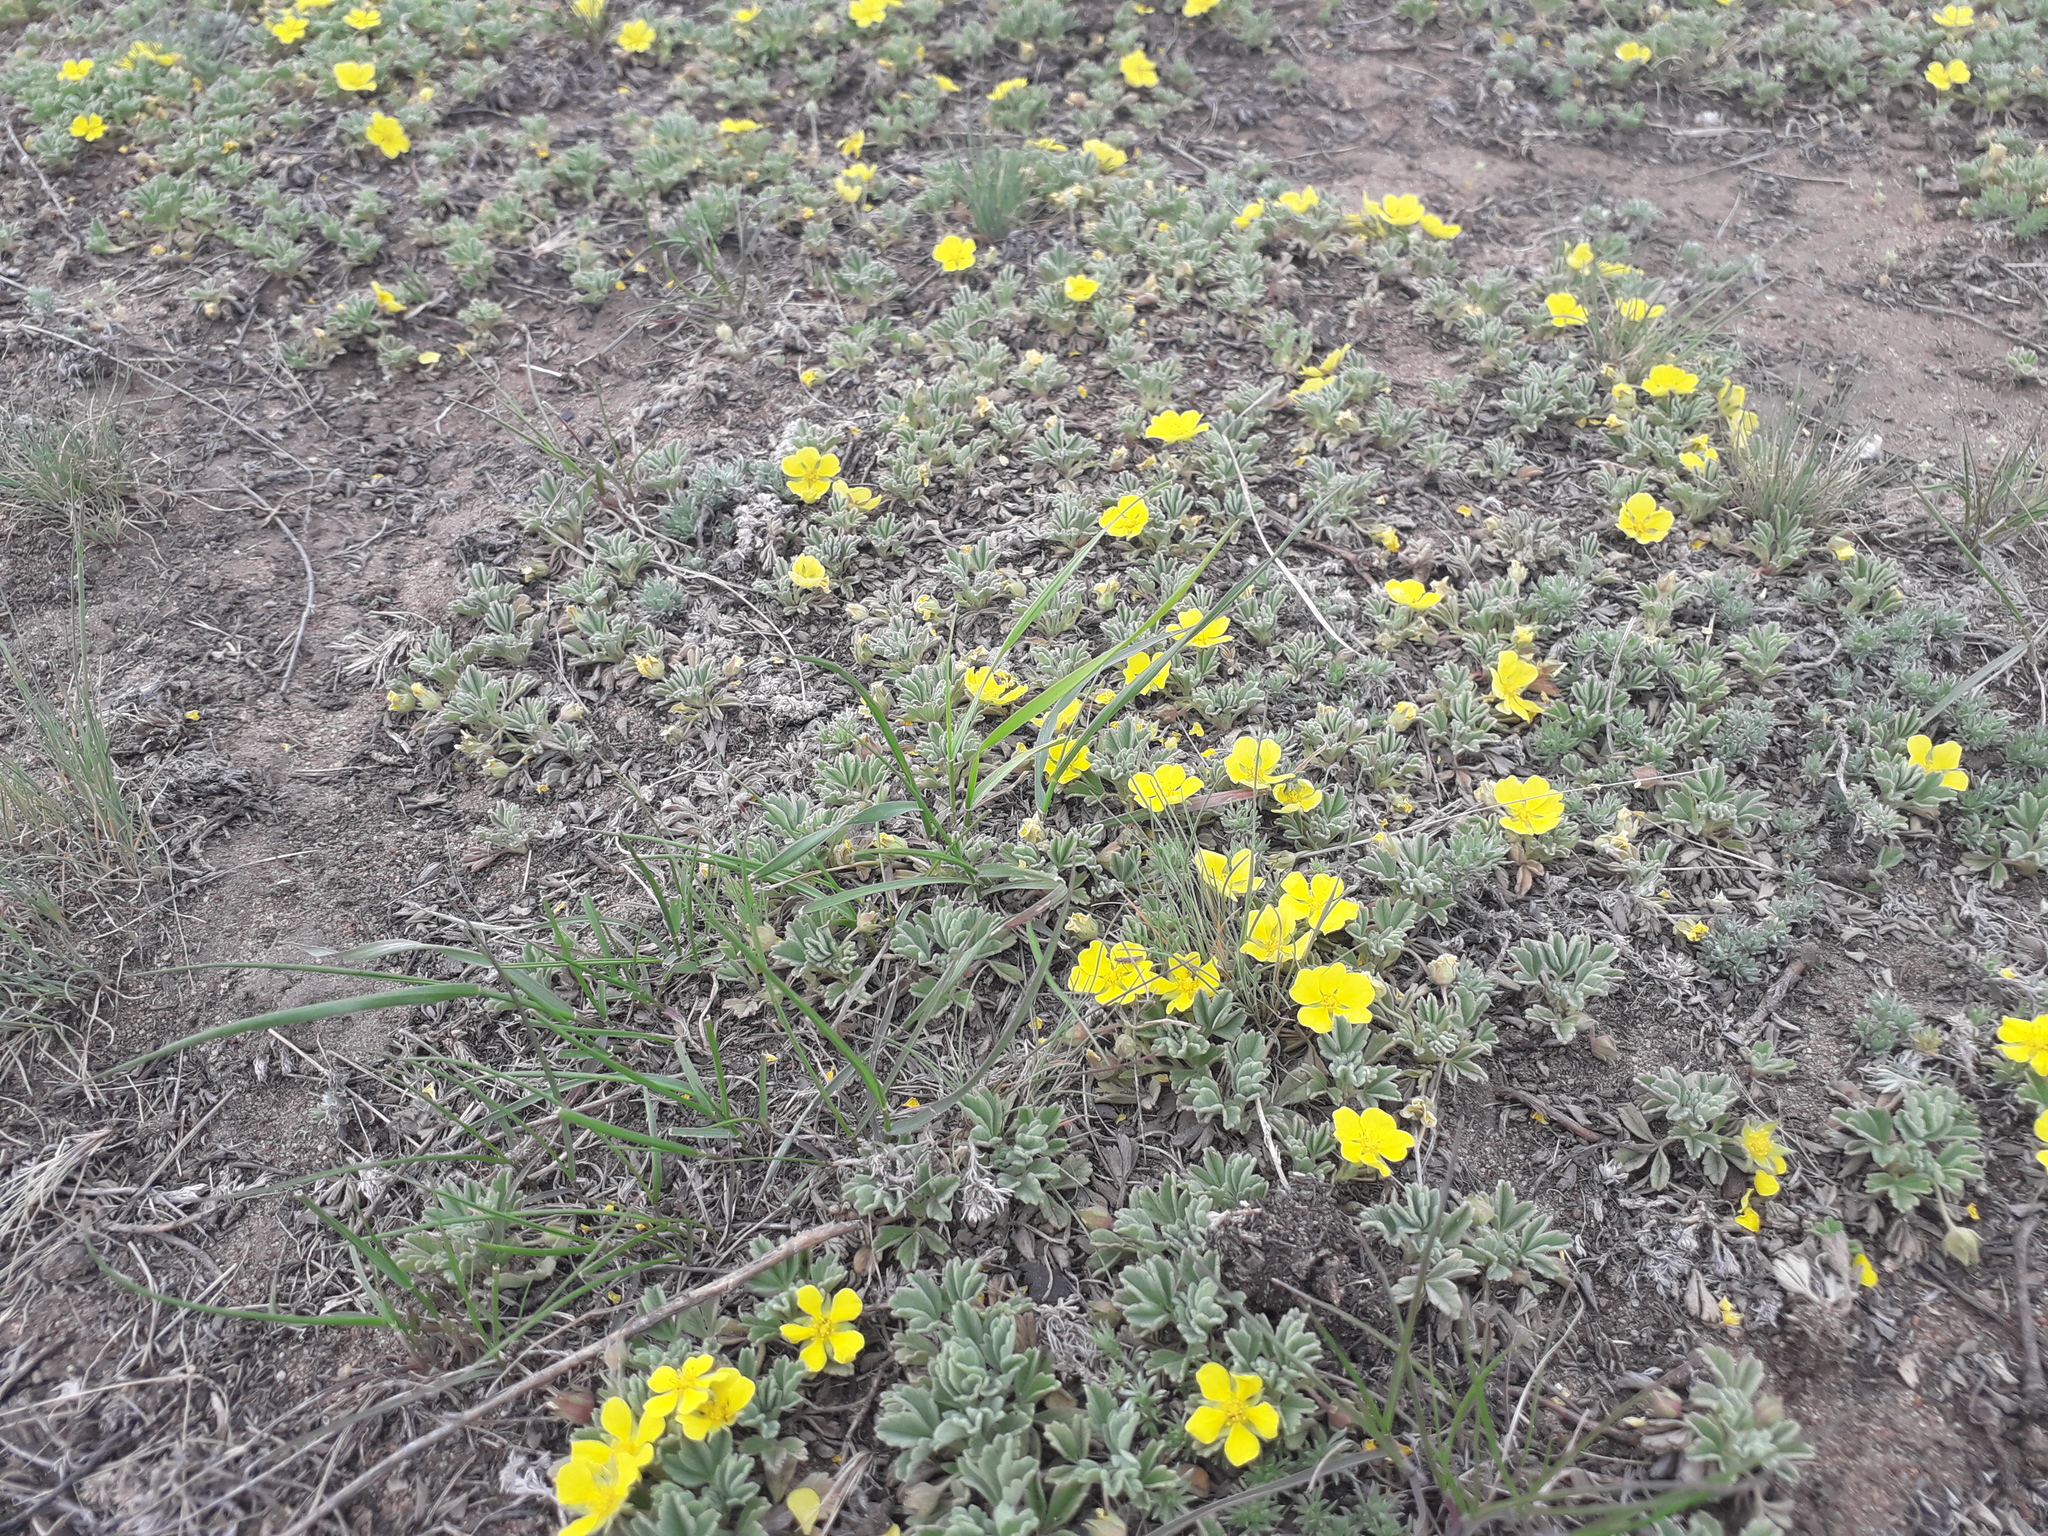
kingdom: Plantae
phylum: Tracheophyta
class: Magnoliopsida
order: Rosales
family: Rosaceae
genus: Potentilla
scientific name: Potentilla acaulis
